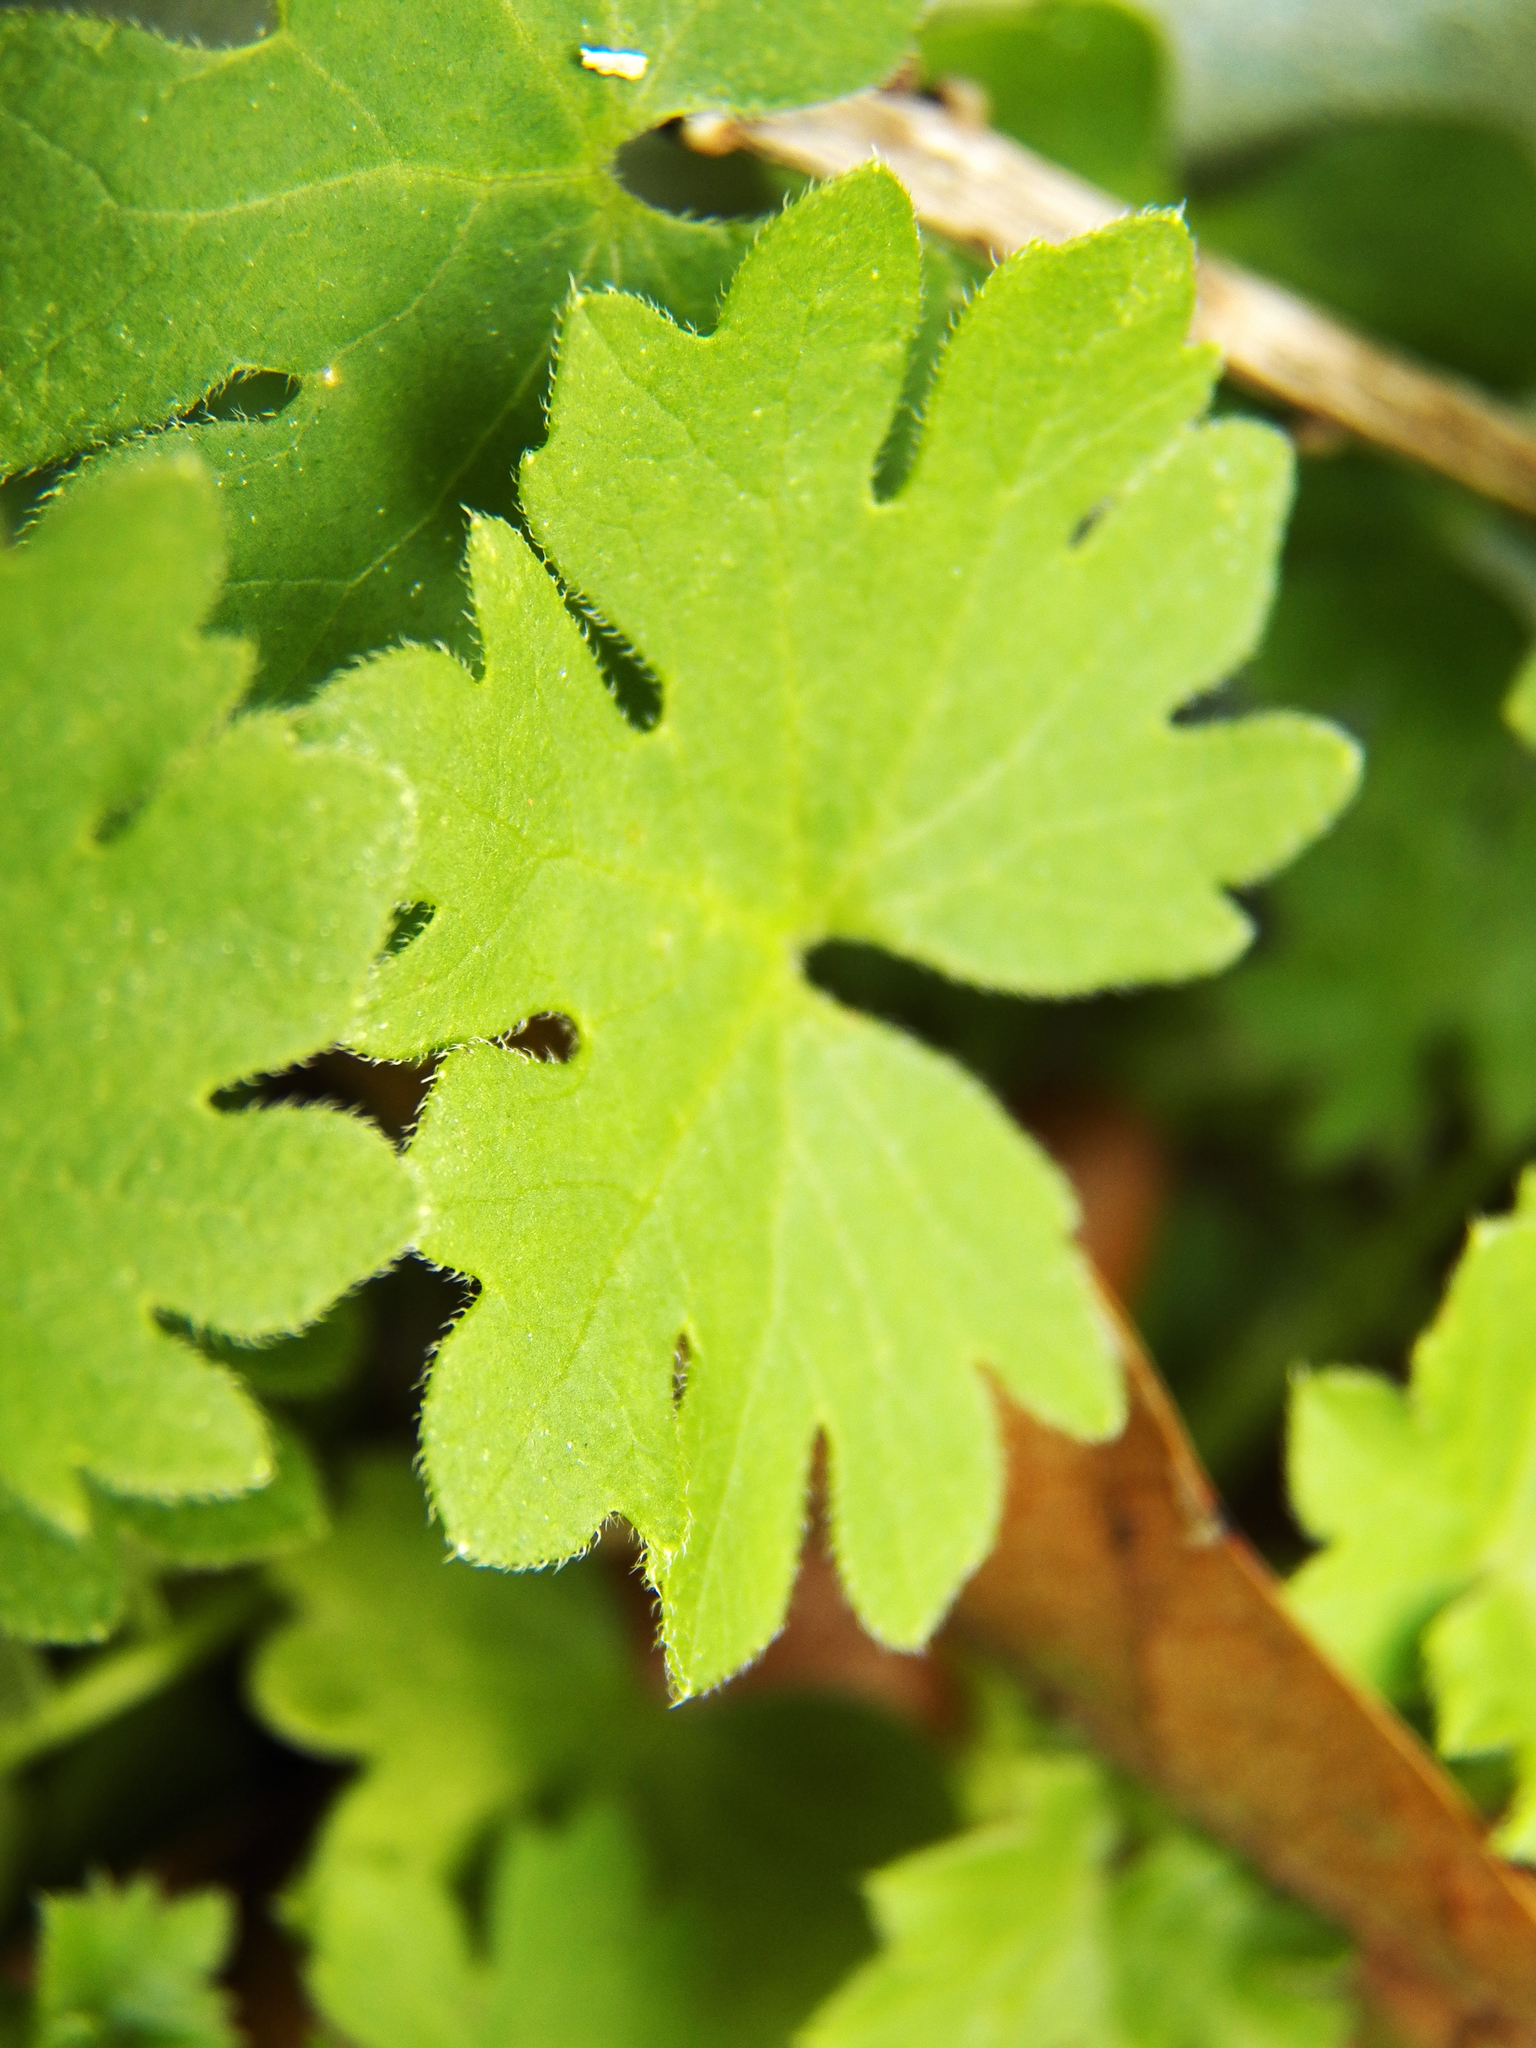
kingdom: Plantae
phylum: Tracheophyta
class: Magnoliopsida
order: Apiales
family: Apiaceae
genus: Bowlesia
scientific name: Bowlesia incana
